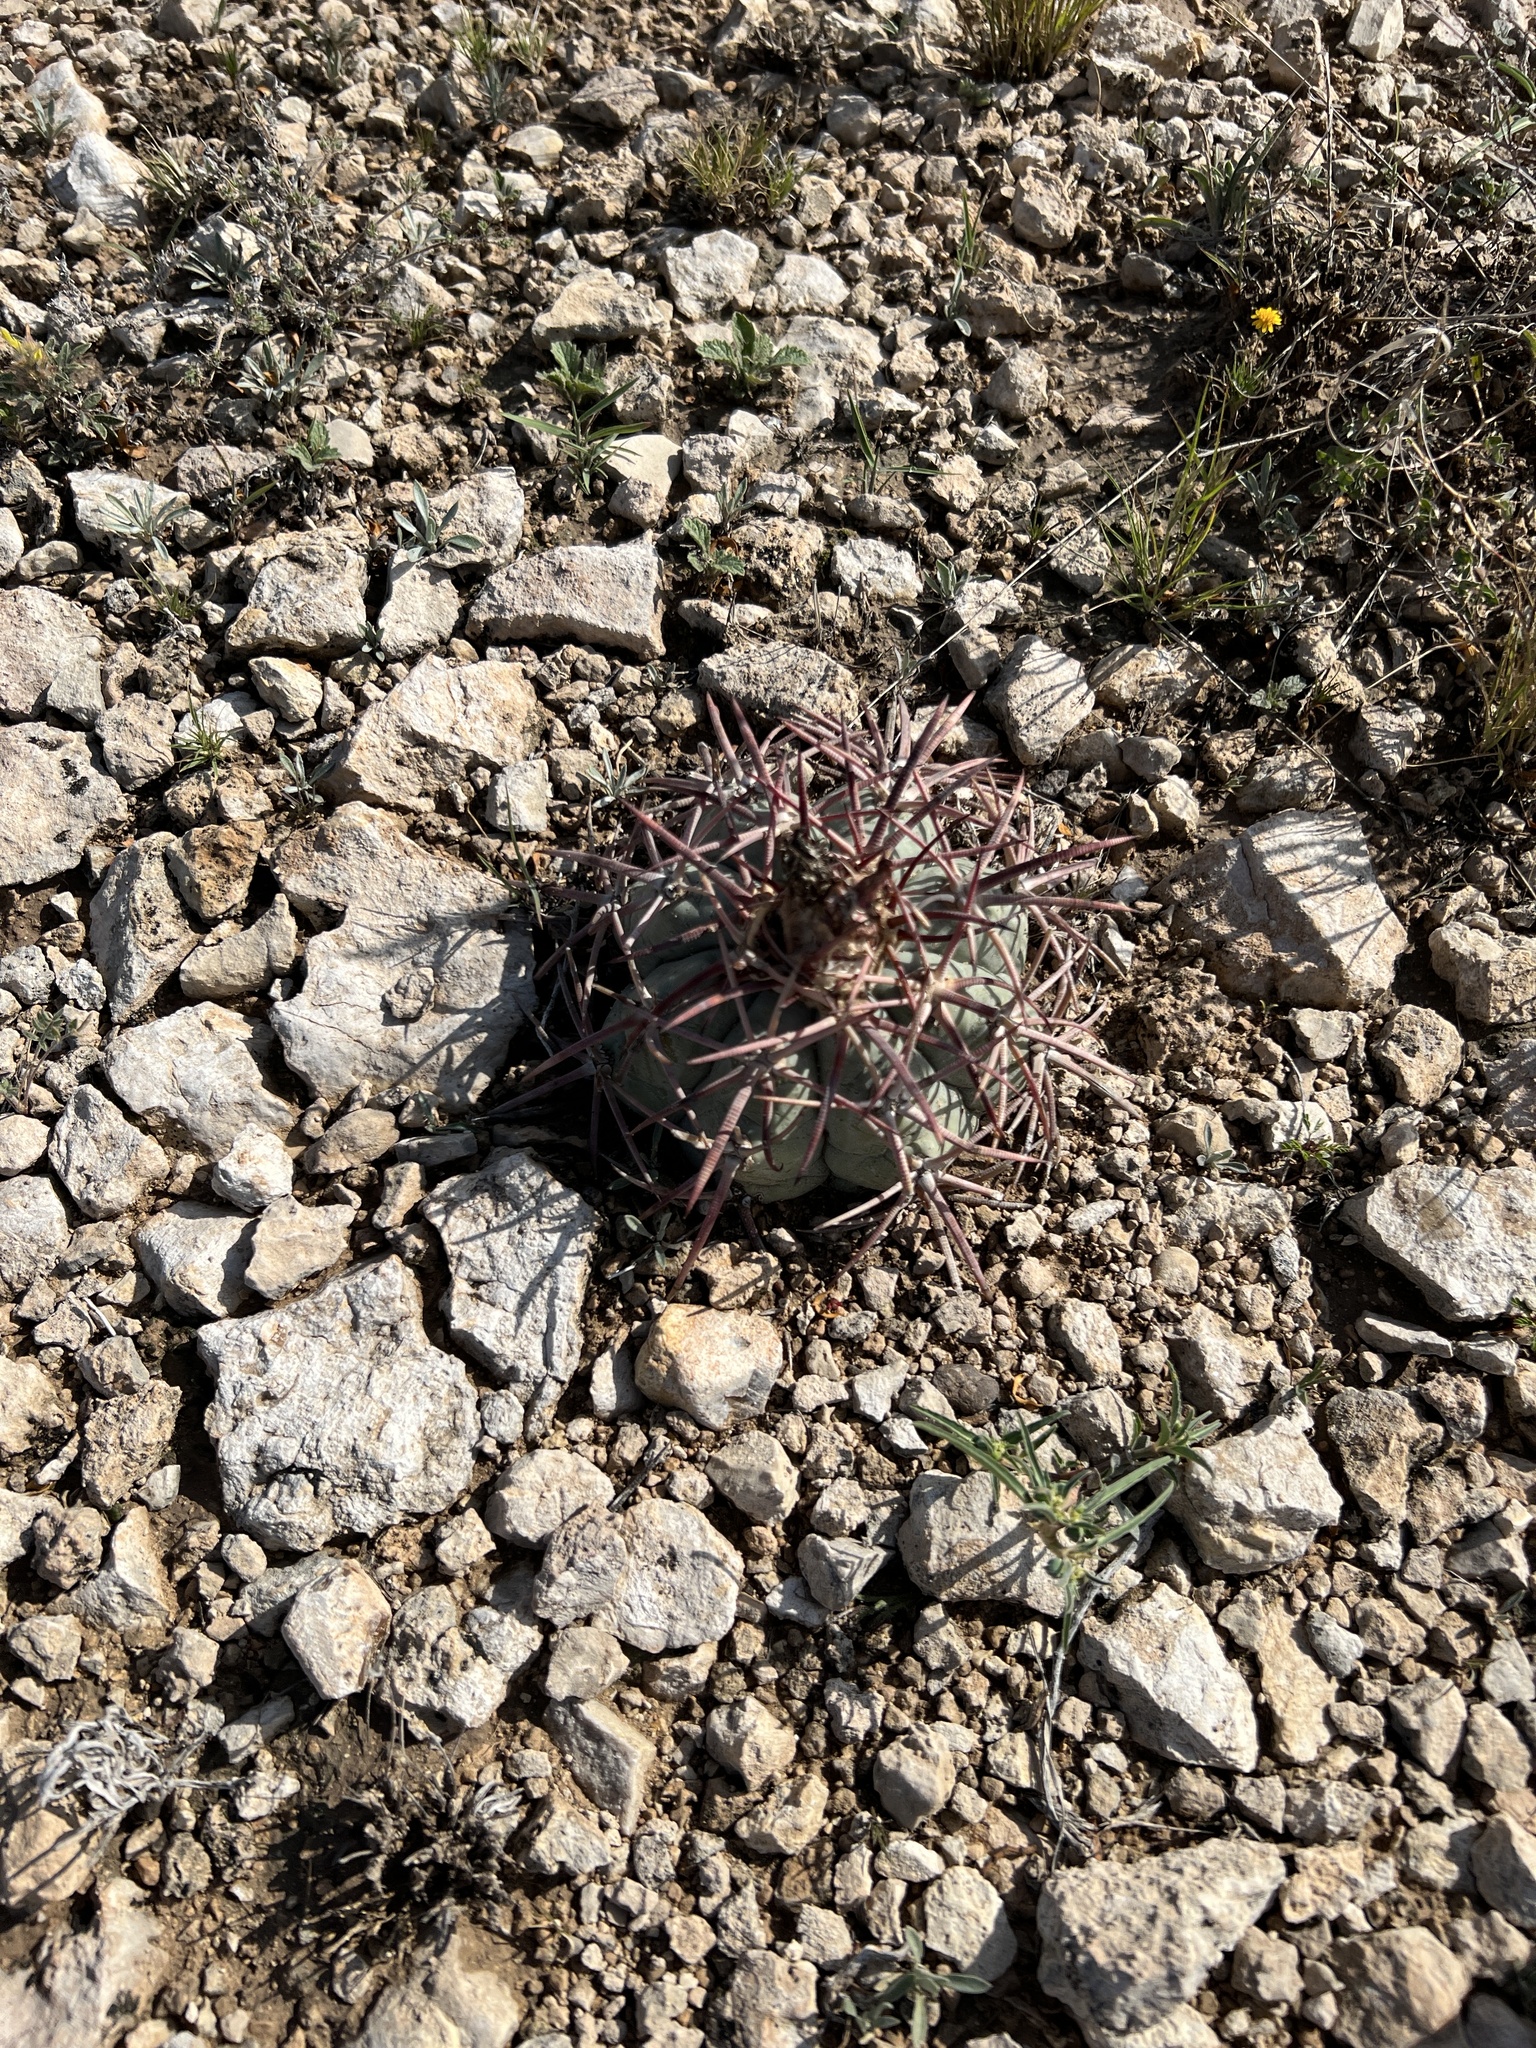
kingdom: Plantae
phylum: Tracheophyta
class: Magnoliopsida
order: Caryophyllales
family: Cactaceae
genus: Echinocactus
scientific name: Echinocactus horizonthalonius
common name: Devilshead
